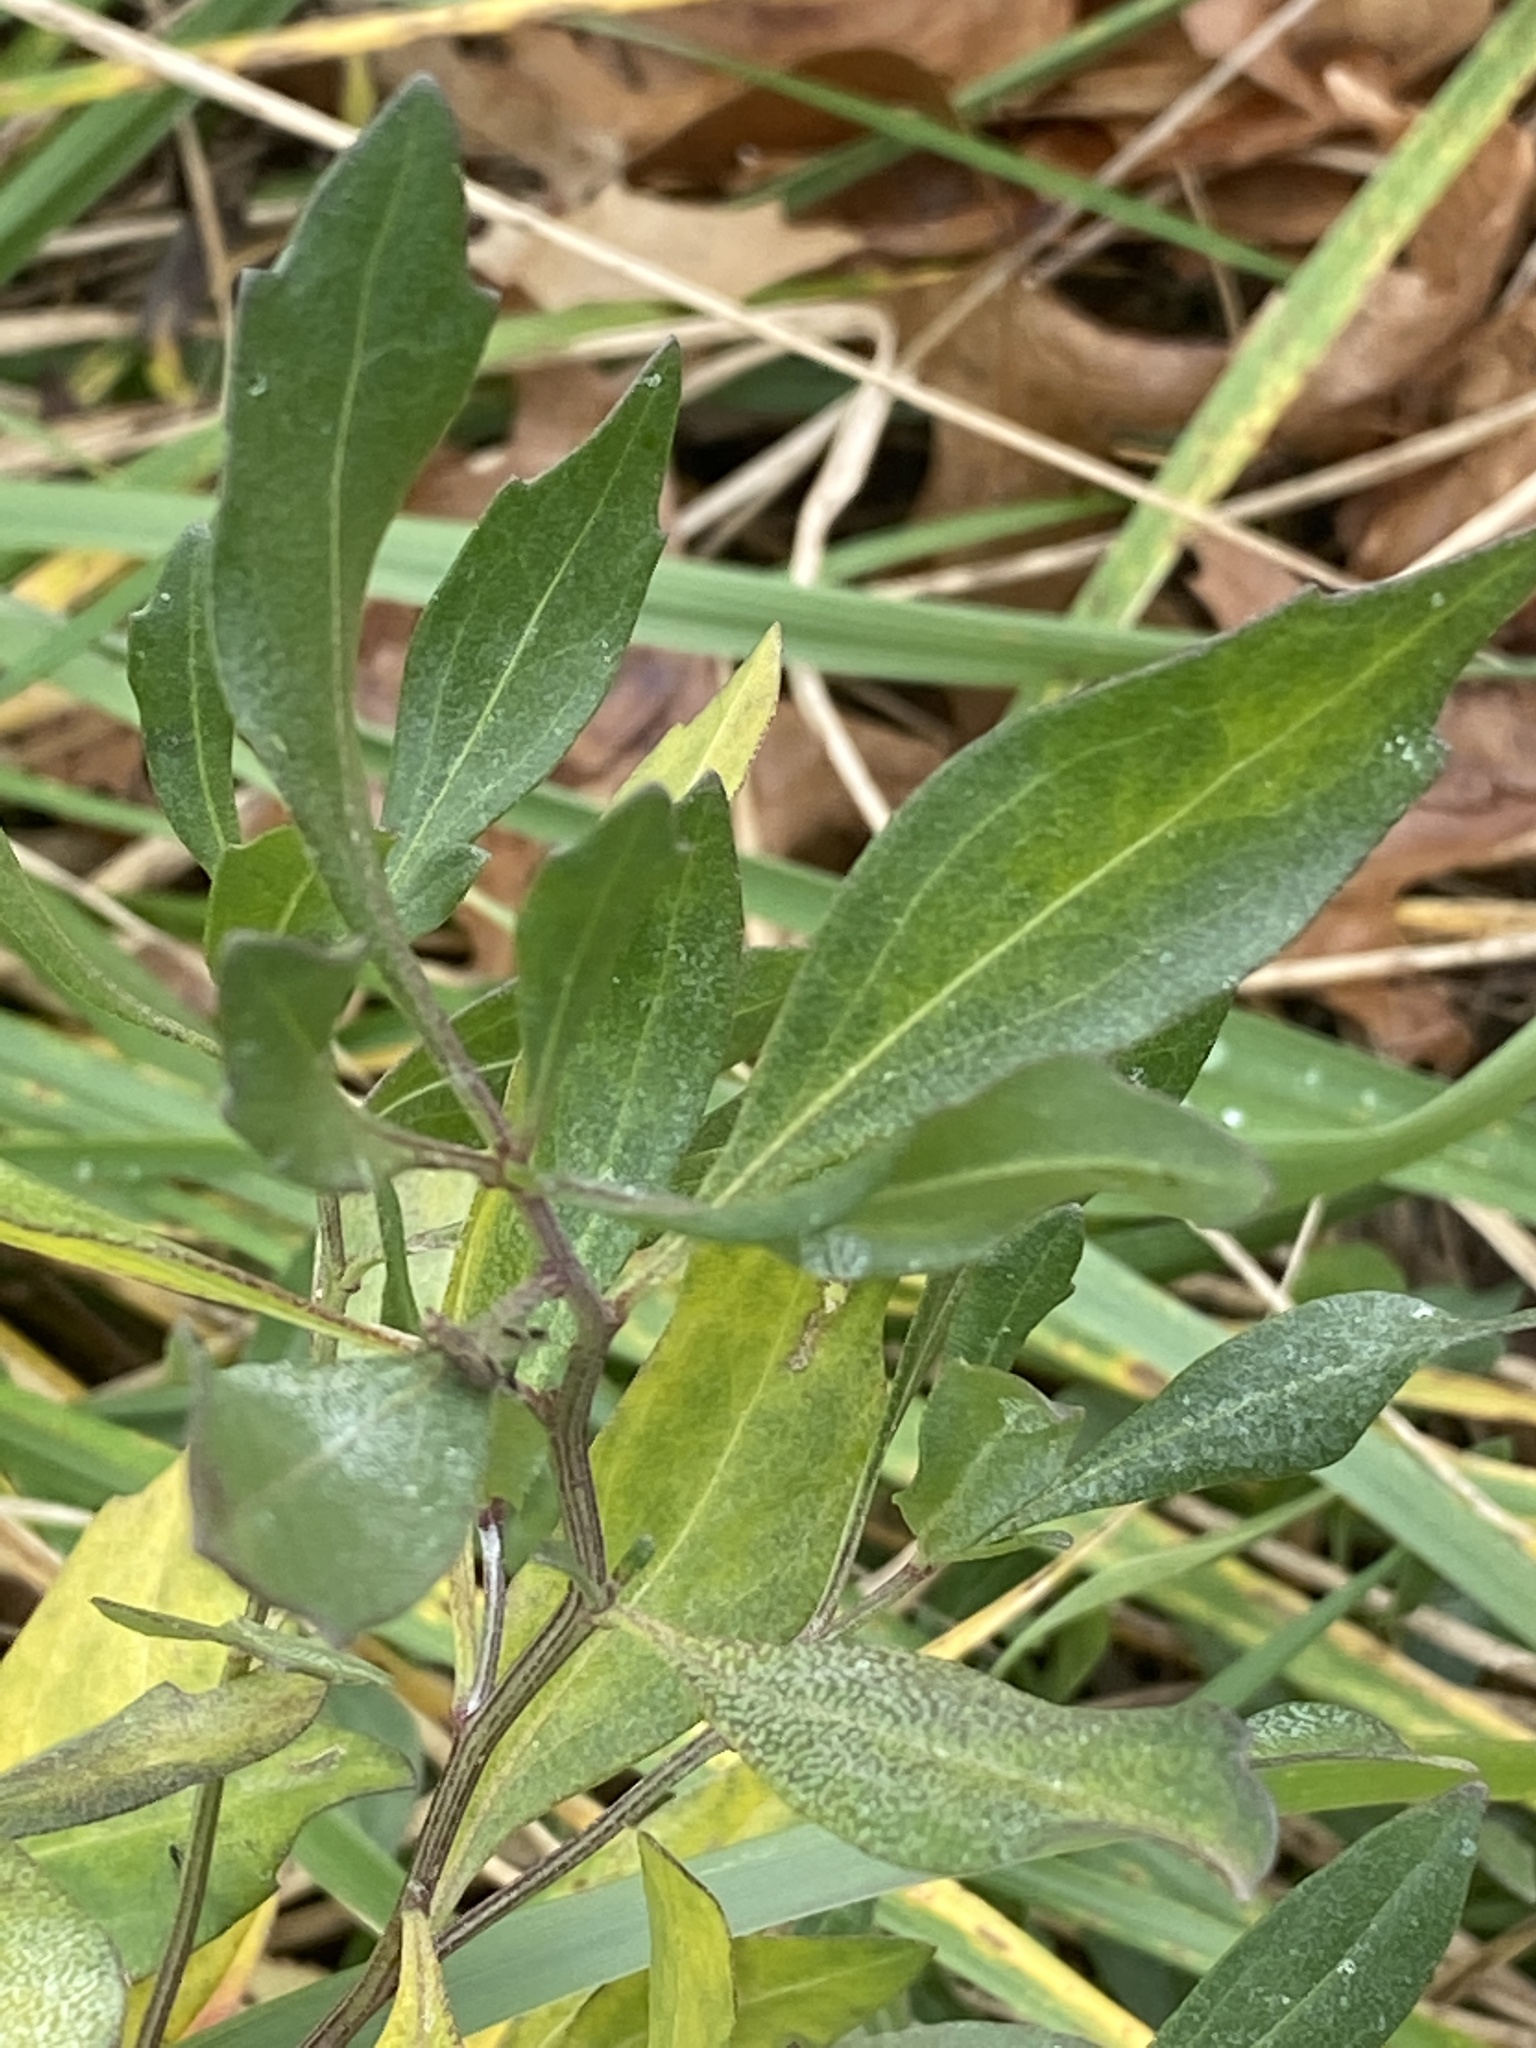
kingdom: Plantae
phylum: Tracheophyta
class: Magnoliopsida
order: Asterales
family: Asteraceae
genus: Baccharis
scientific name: Baccharis halimifolia
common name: Eastern baccharis
